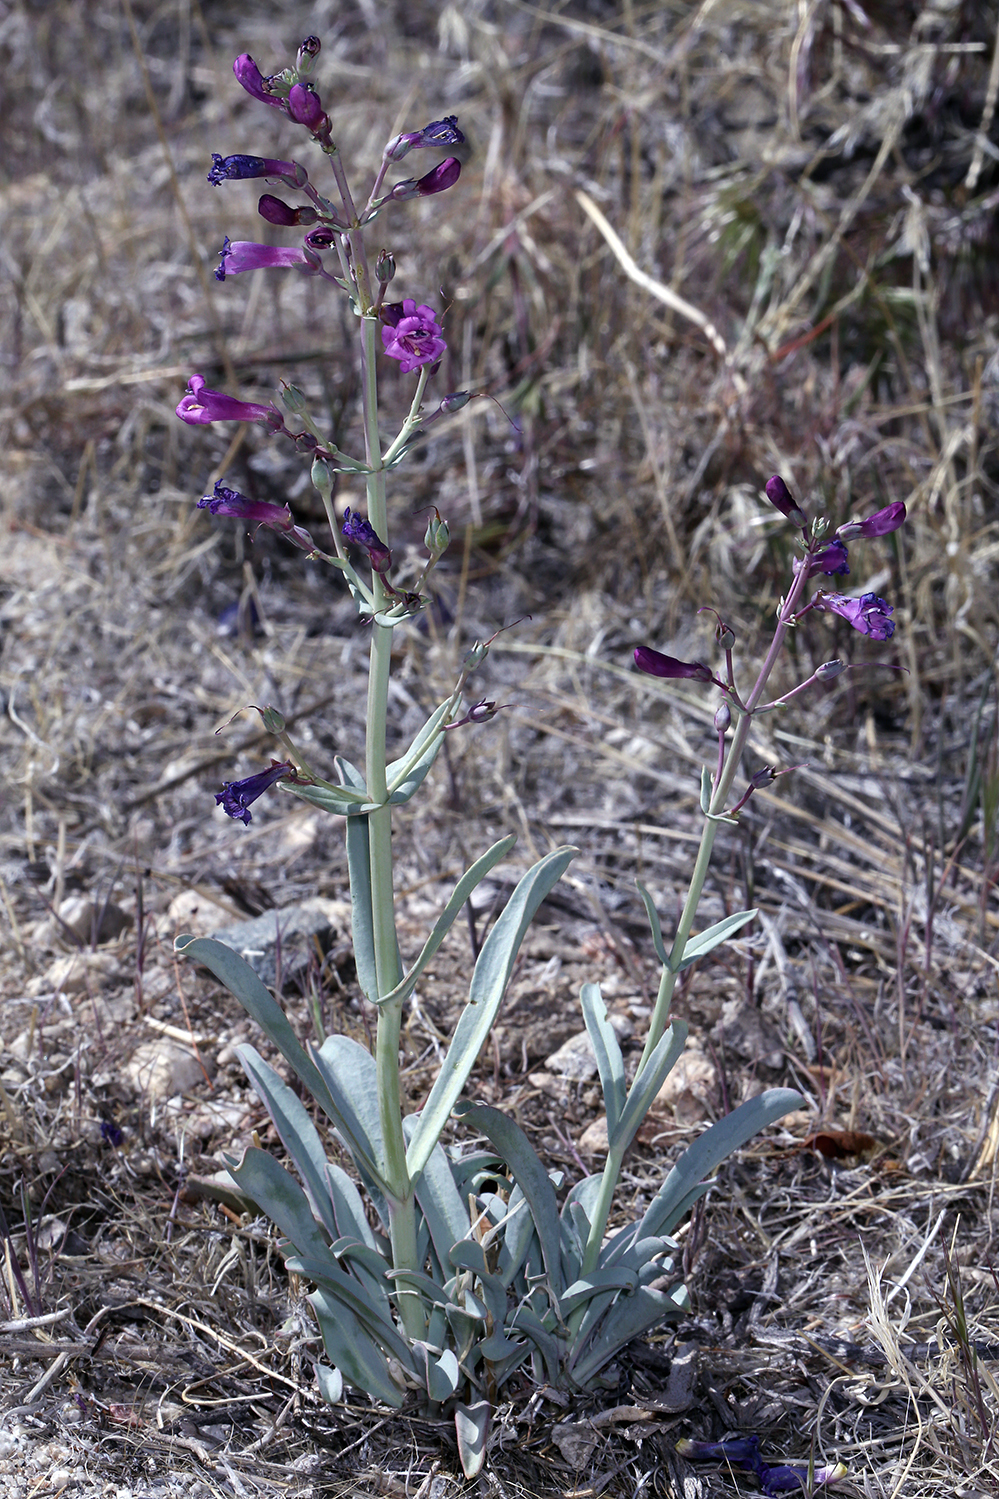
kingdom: Plantae
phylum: Tracheophyta
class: Magnoliopsida
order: Lamiales
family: Plantaginaceae
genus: Penstemon
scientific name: Penstemon patens
